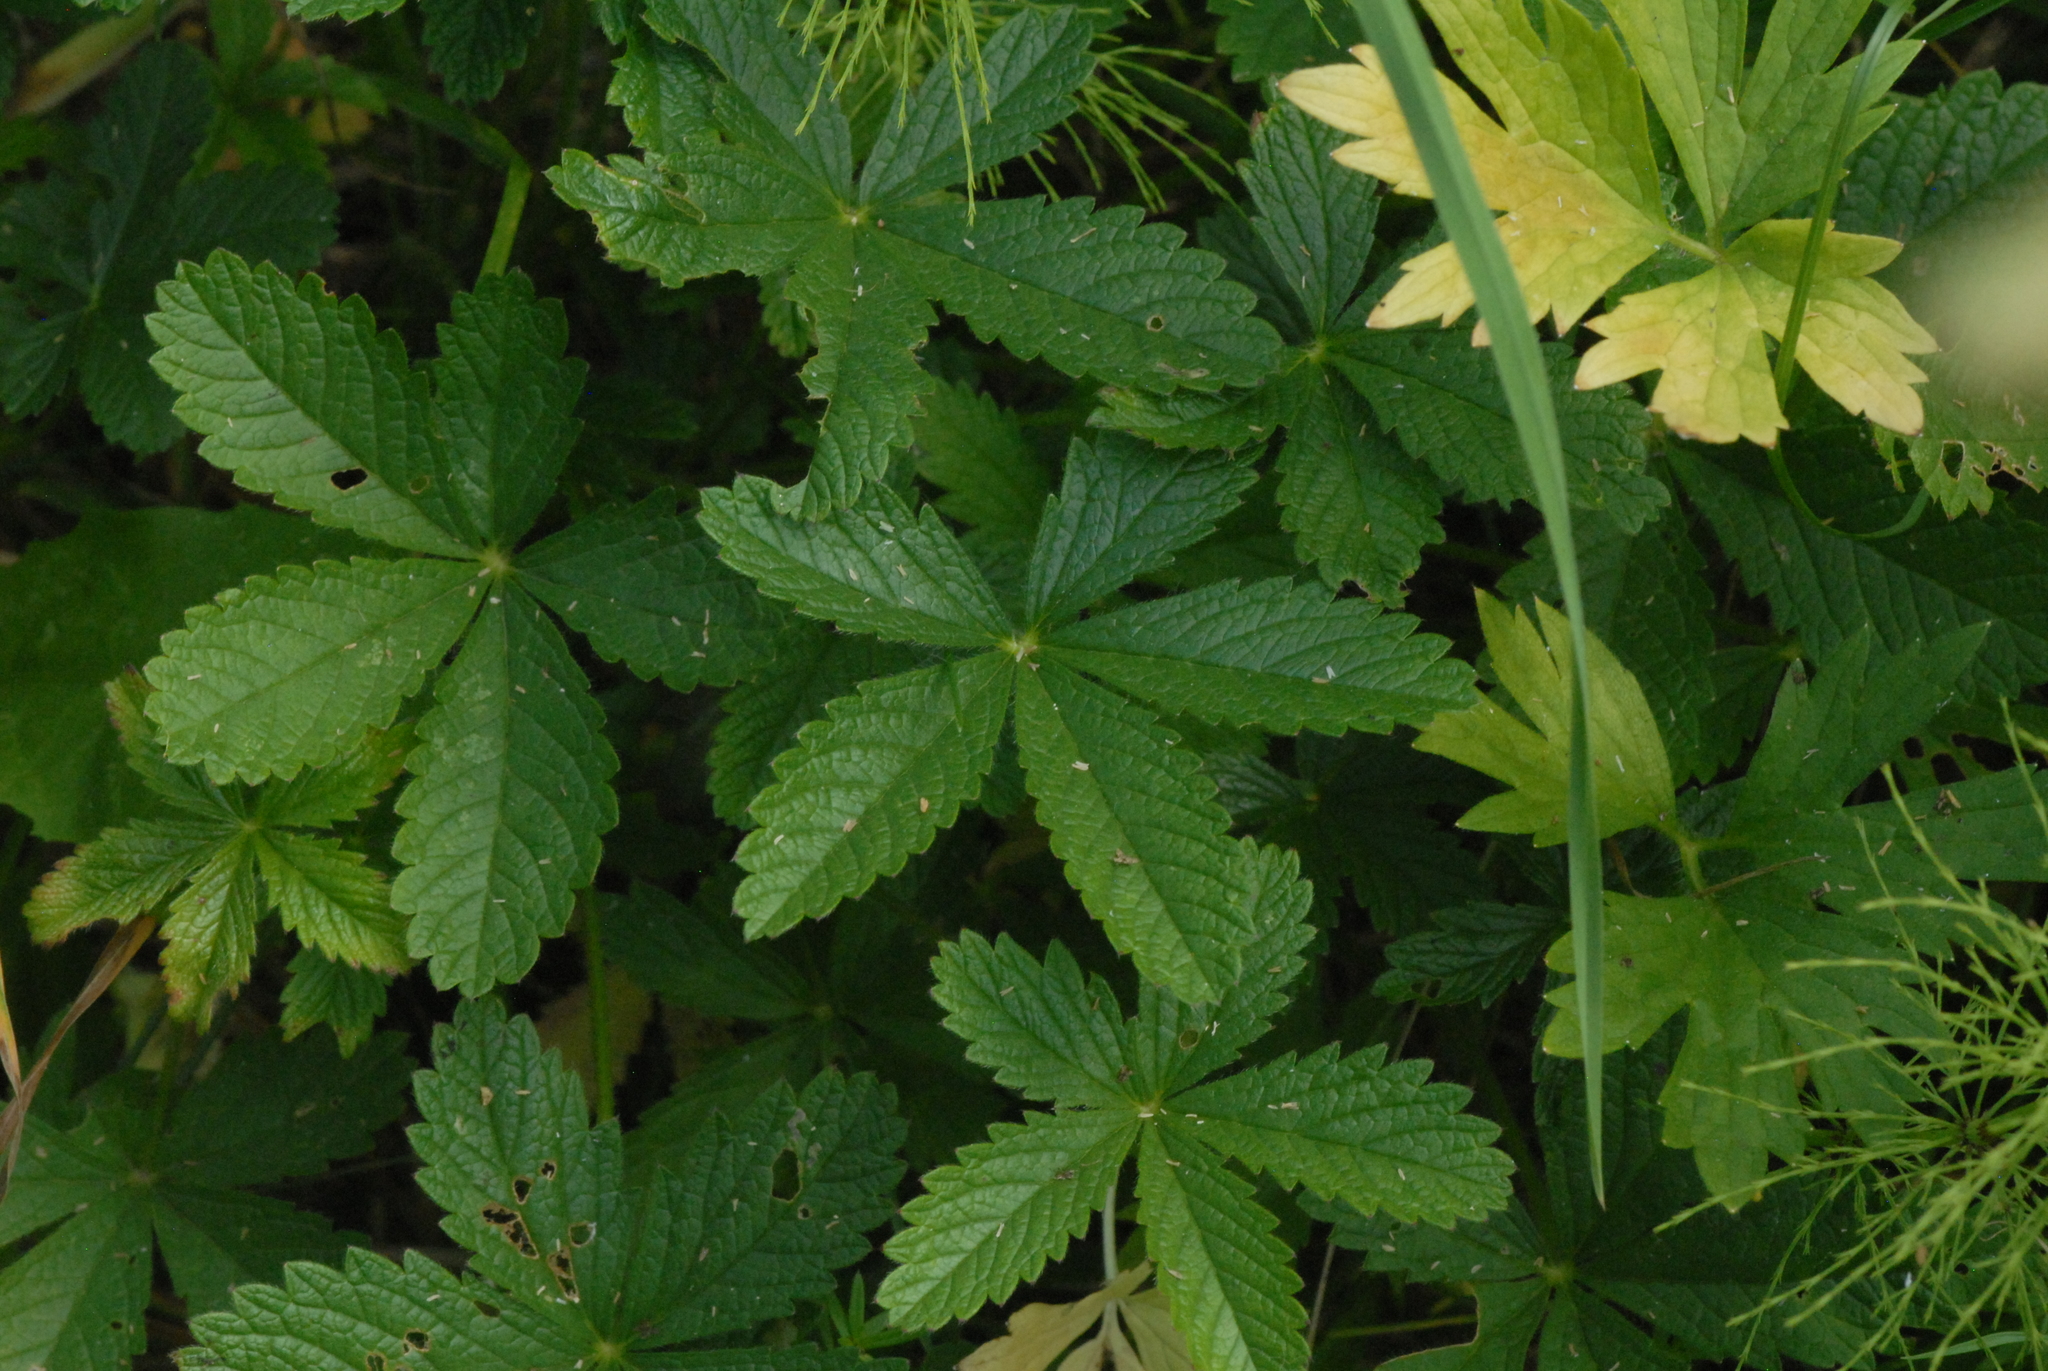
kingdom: Plantae
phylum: Tracheophyta
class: Magnoliopsida
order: Rosales
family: Rosaceae
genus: Potentilla
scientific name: Potentilla chrysantha
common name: Thuringian cinquefoil
